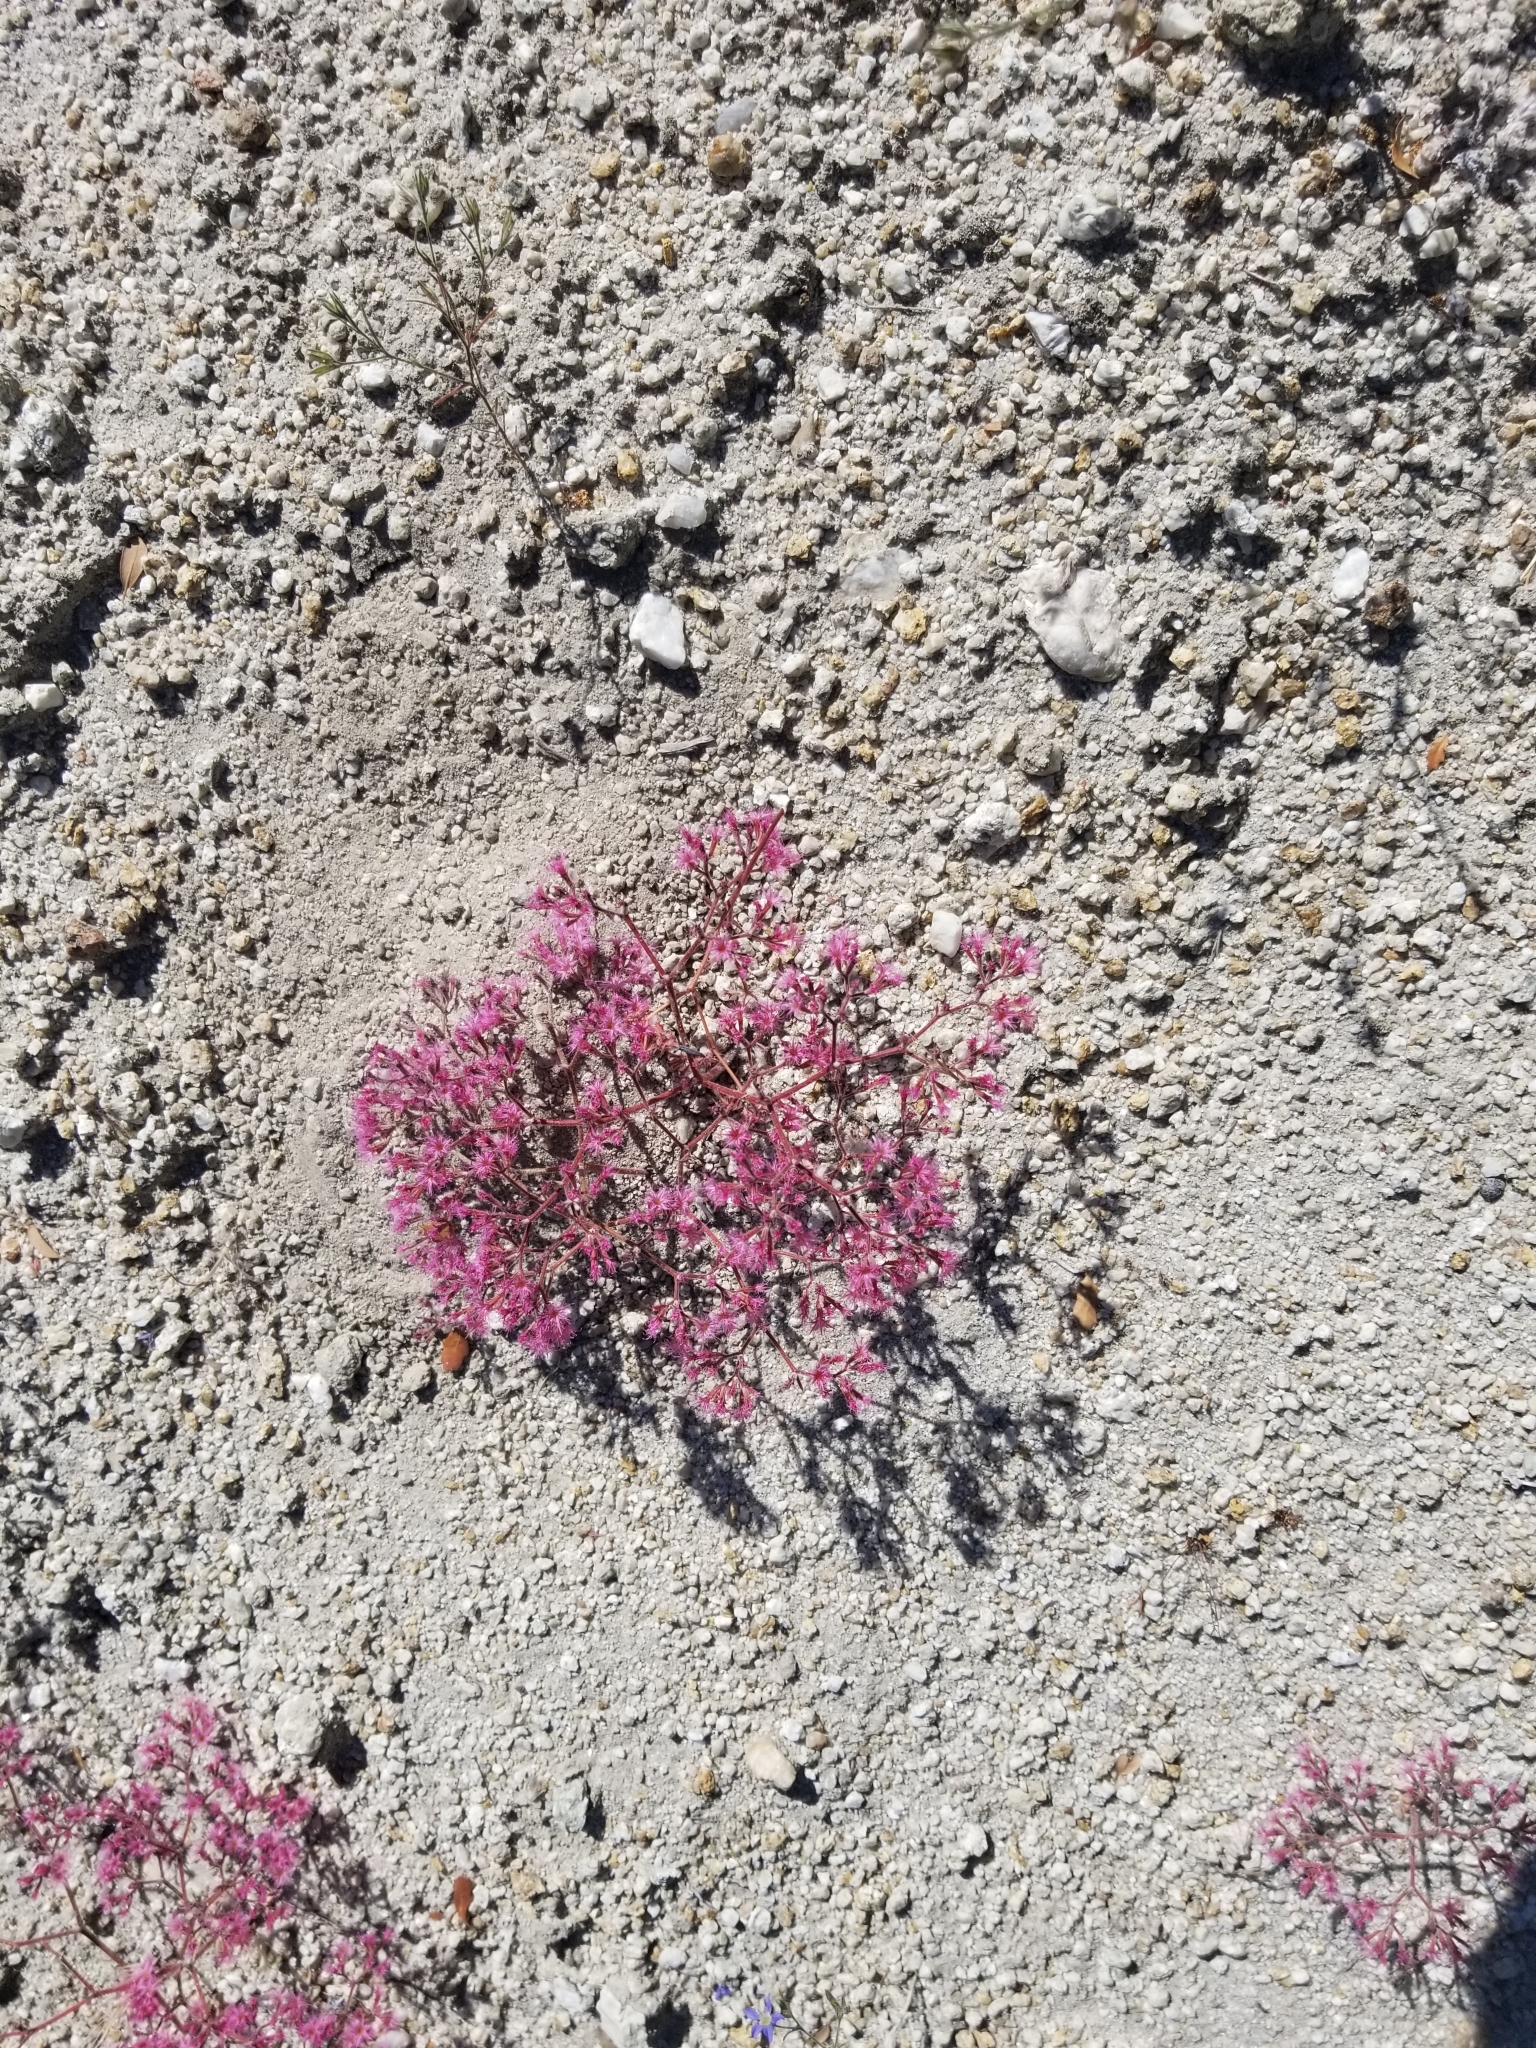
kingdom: Plantae
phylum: Tracheophyta
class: Magnoliopsida
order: Caryophyllales
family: Polygonaceae
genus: Chorizanthe
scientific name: Chorizanthe fimbriata
